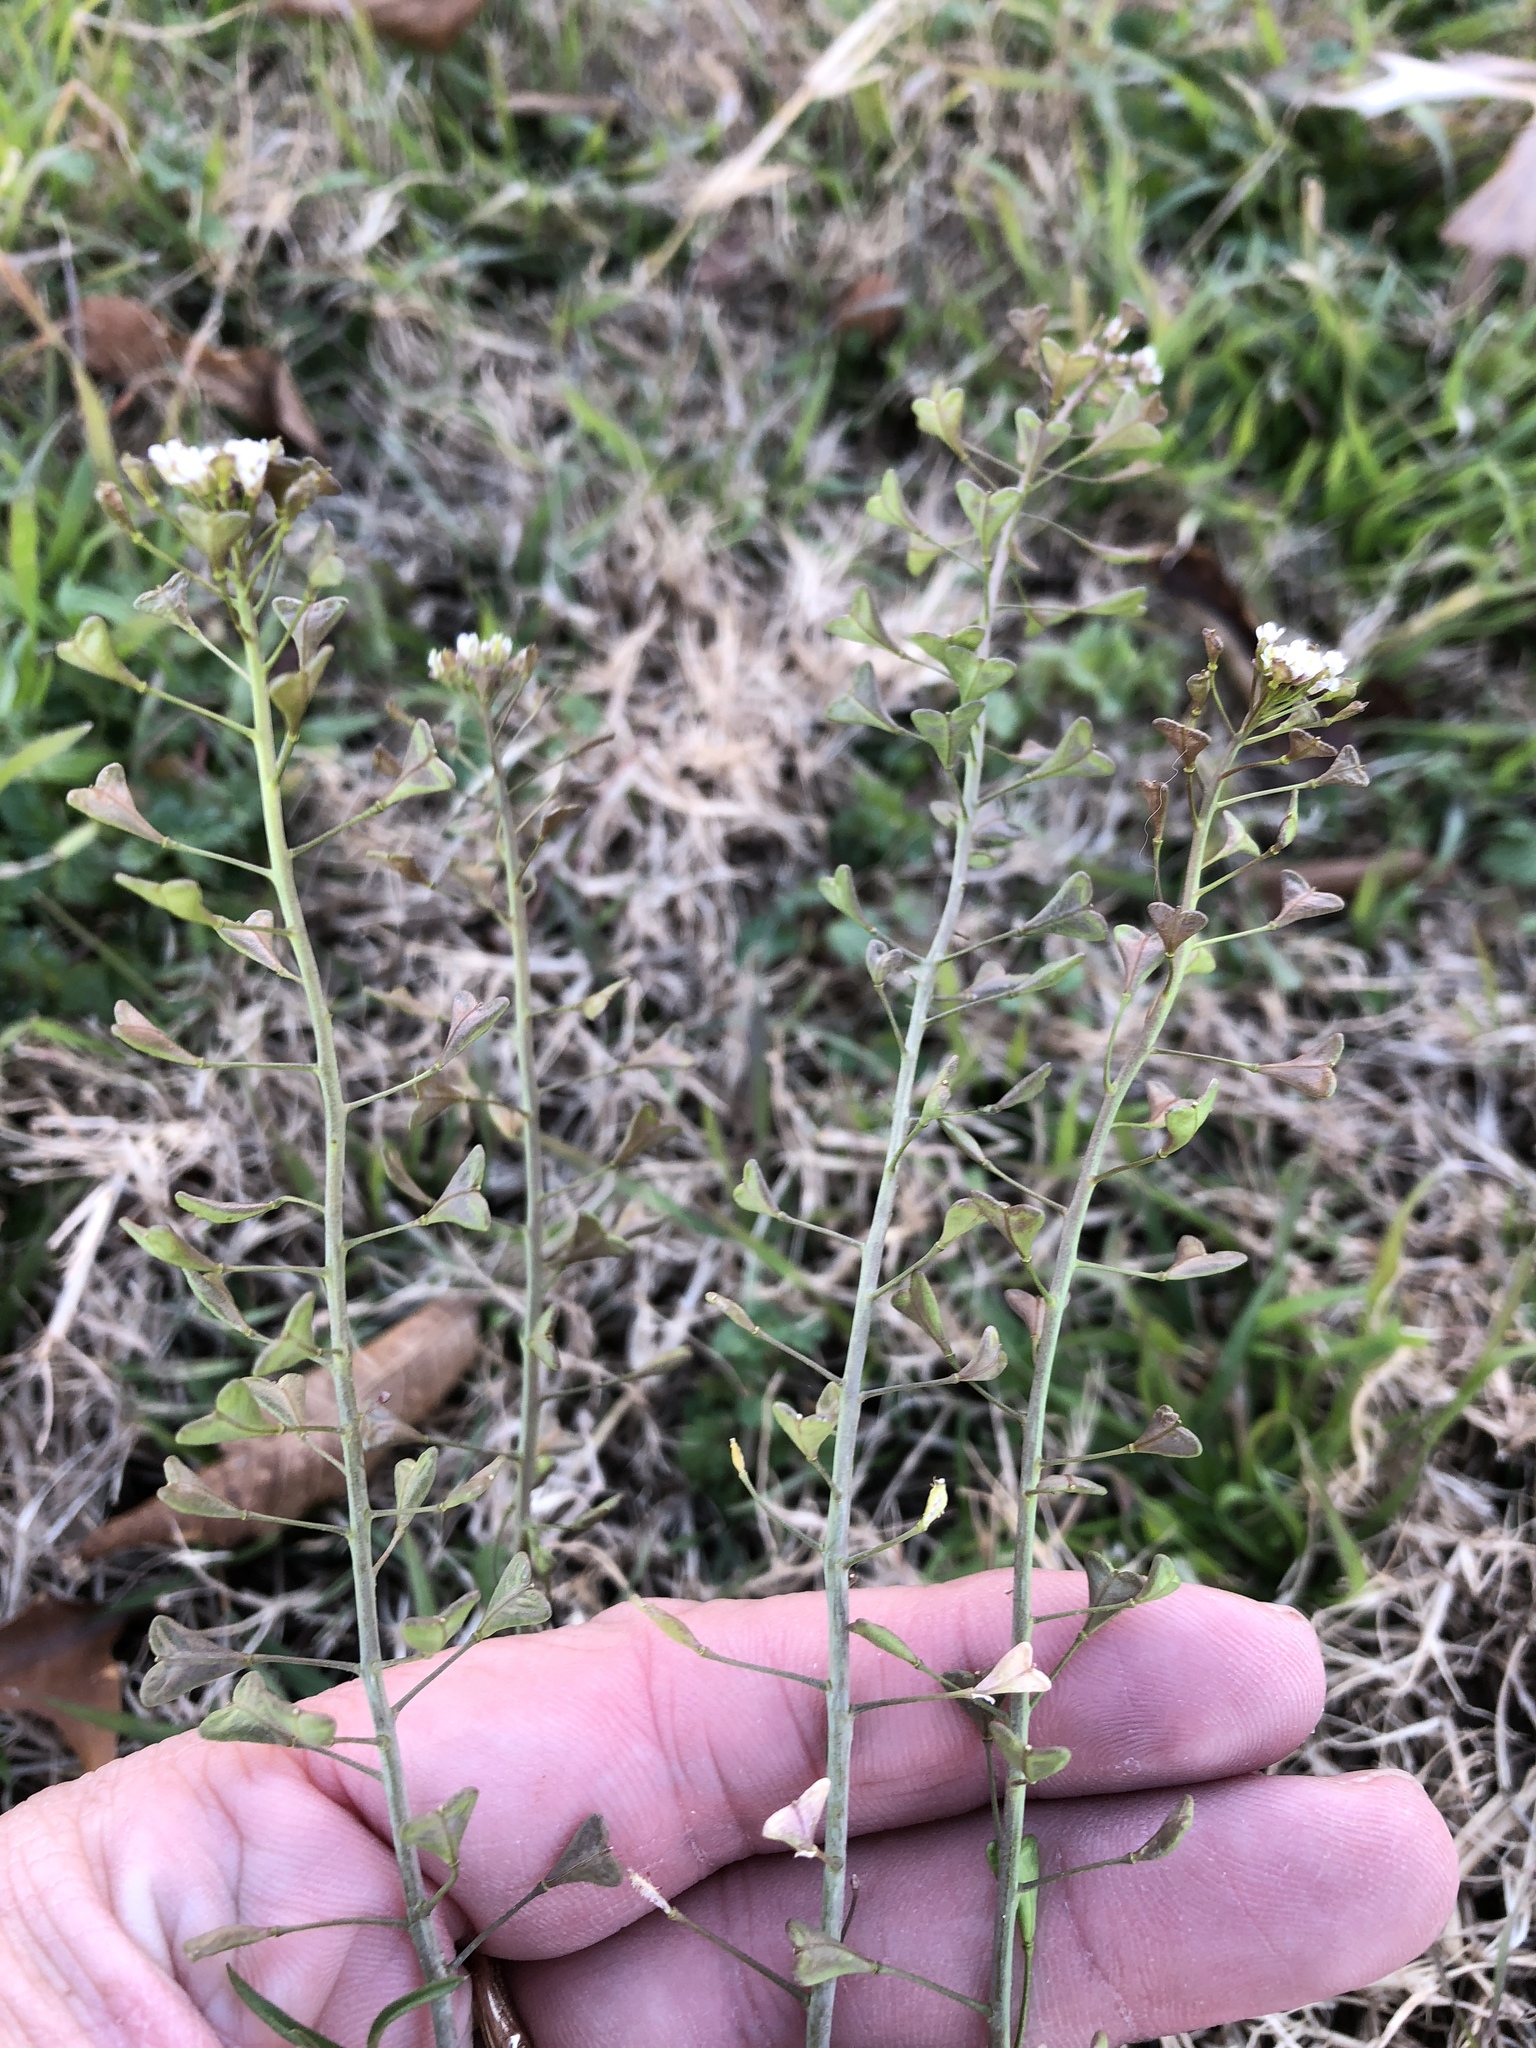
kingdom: Plantae
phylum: Tracheophyta
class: Magnoliopsida
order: Brassicales
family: Brassicaceae
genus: Capsella
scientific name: Capsella bursa-pastoris
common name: Shepherd's purse
